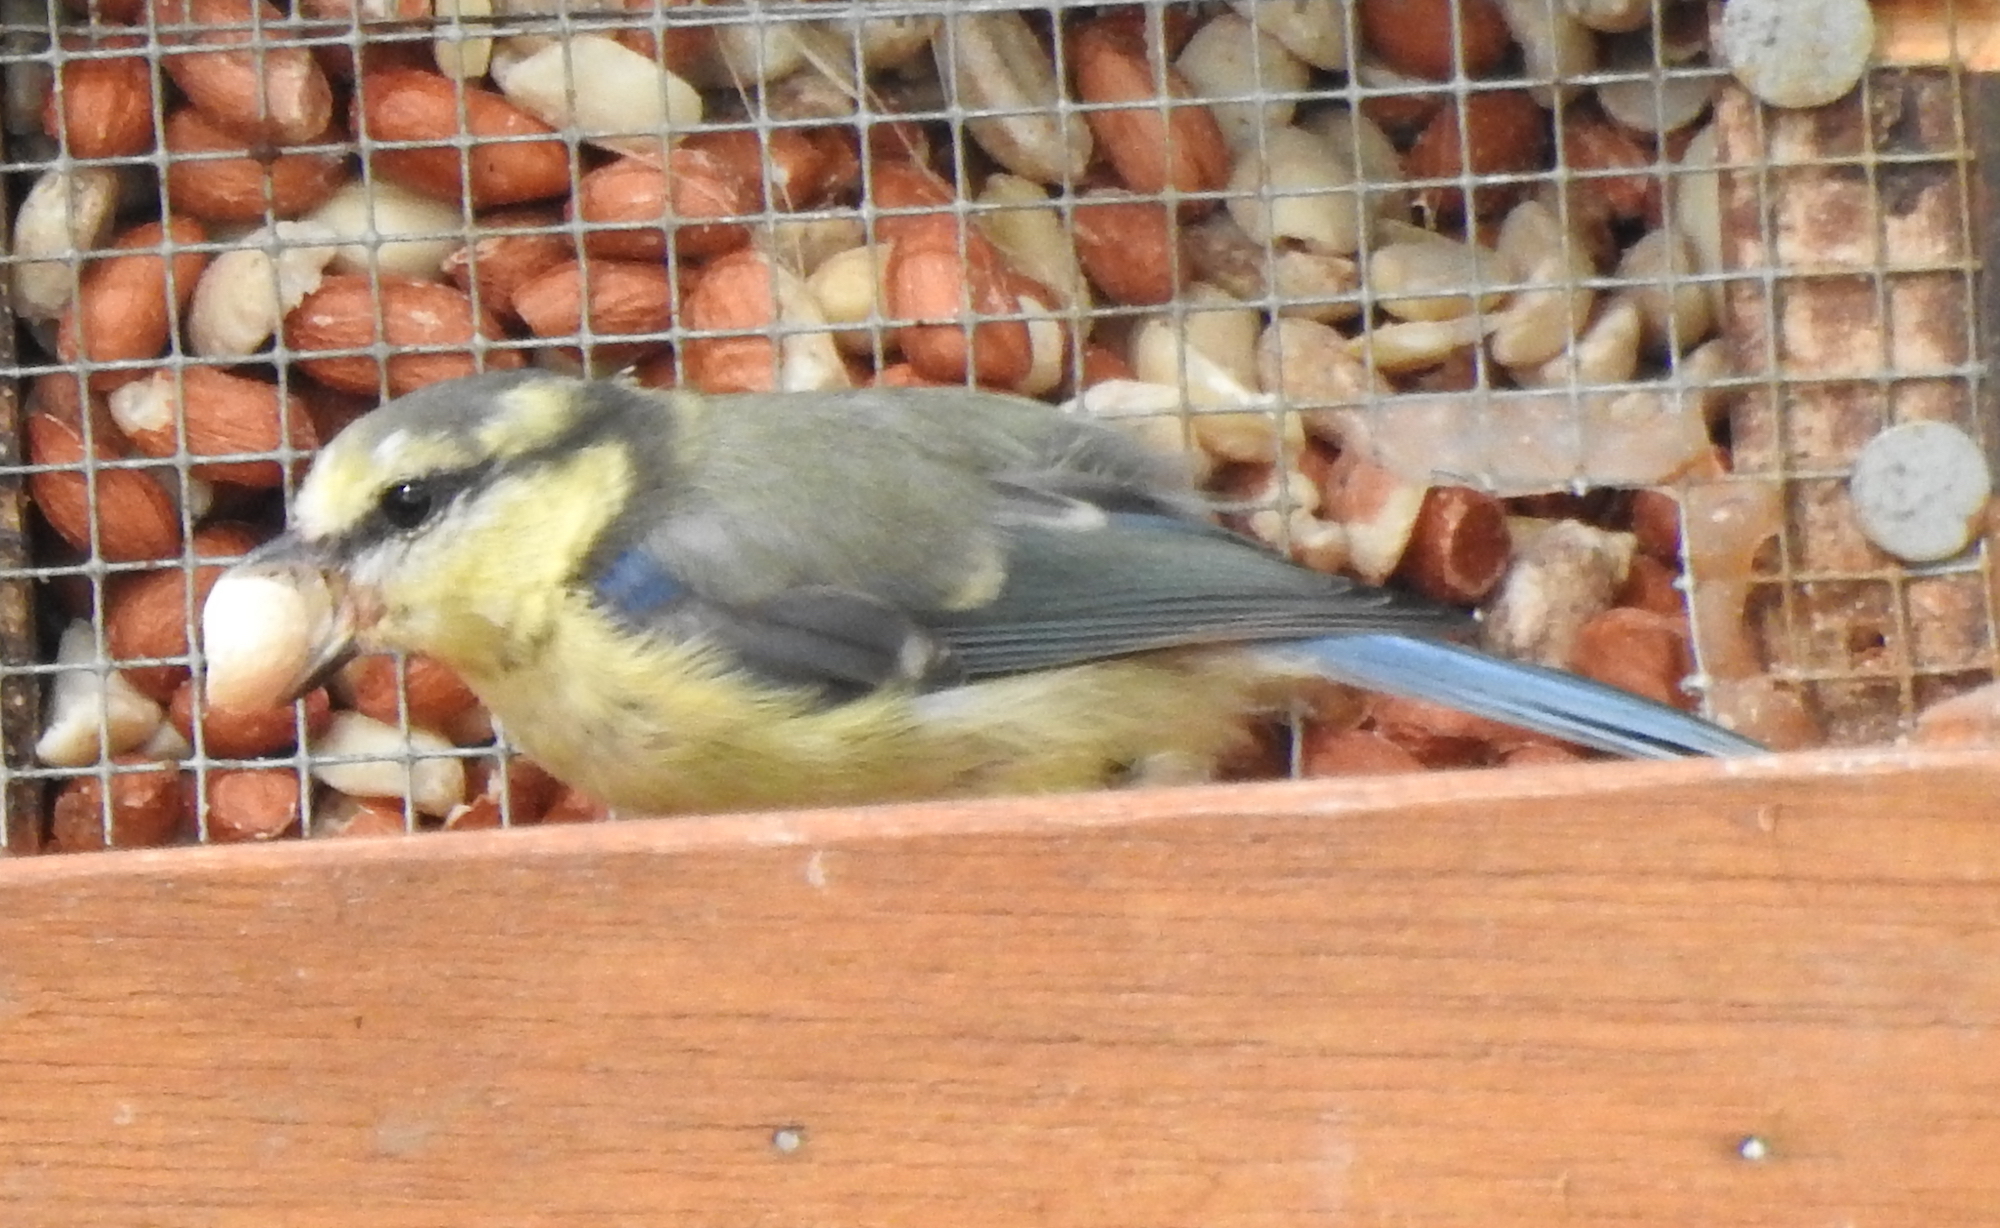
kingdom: Animalia
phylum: Chordata
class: Aves
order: Passeriformes
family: Paridae
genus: Cyanistes
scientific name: Cyanistes caeruleus
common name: Eurasian blue tit
